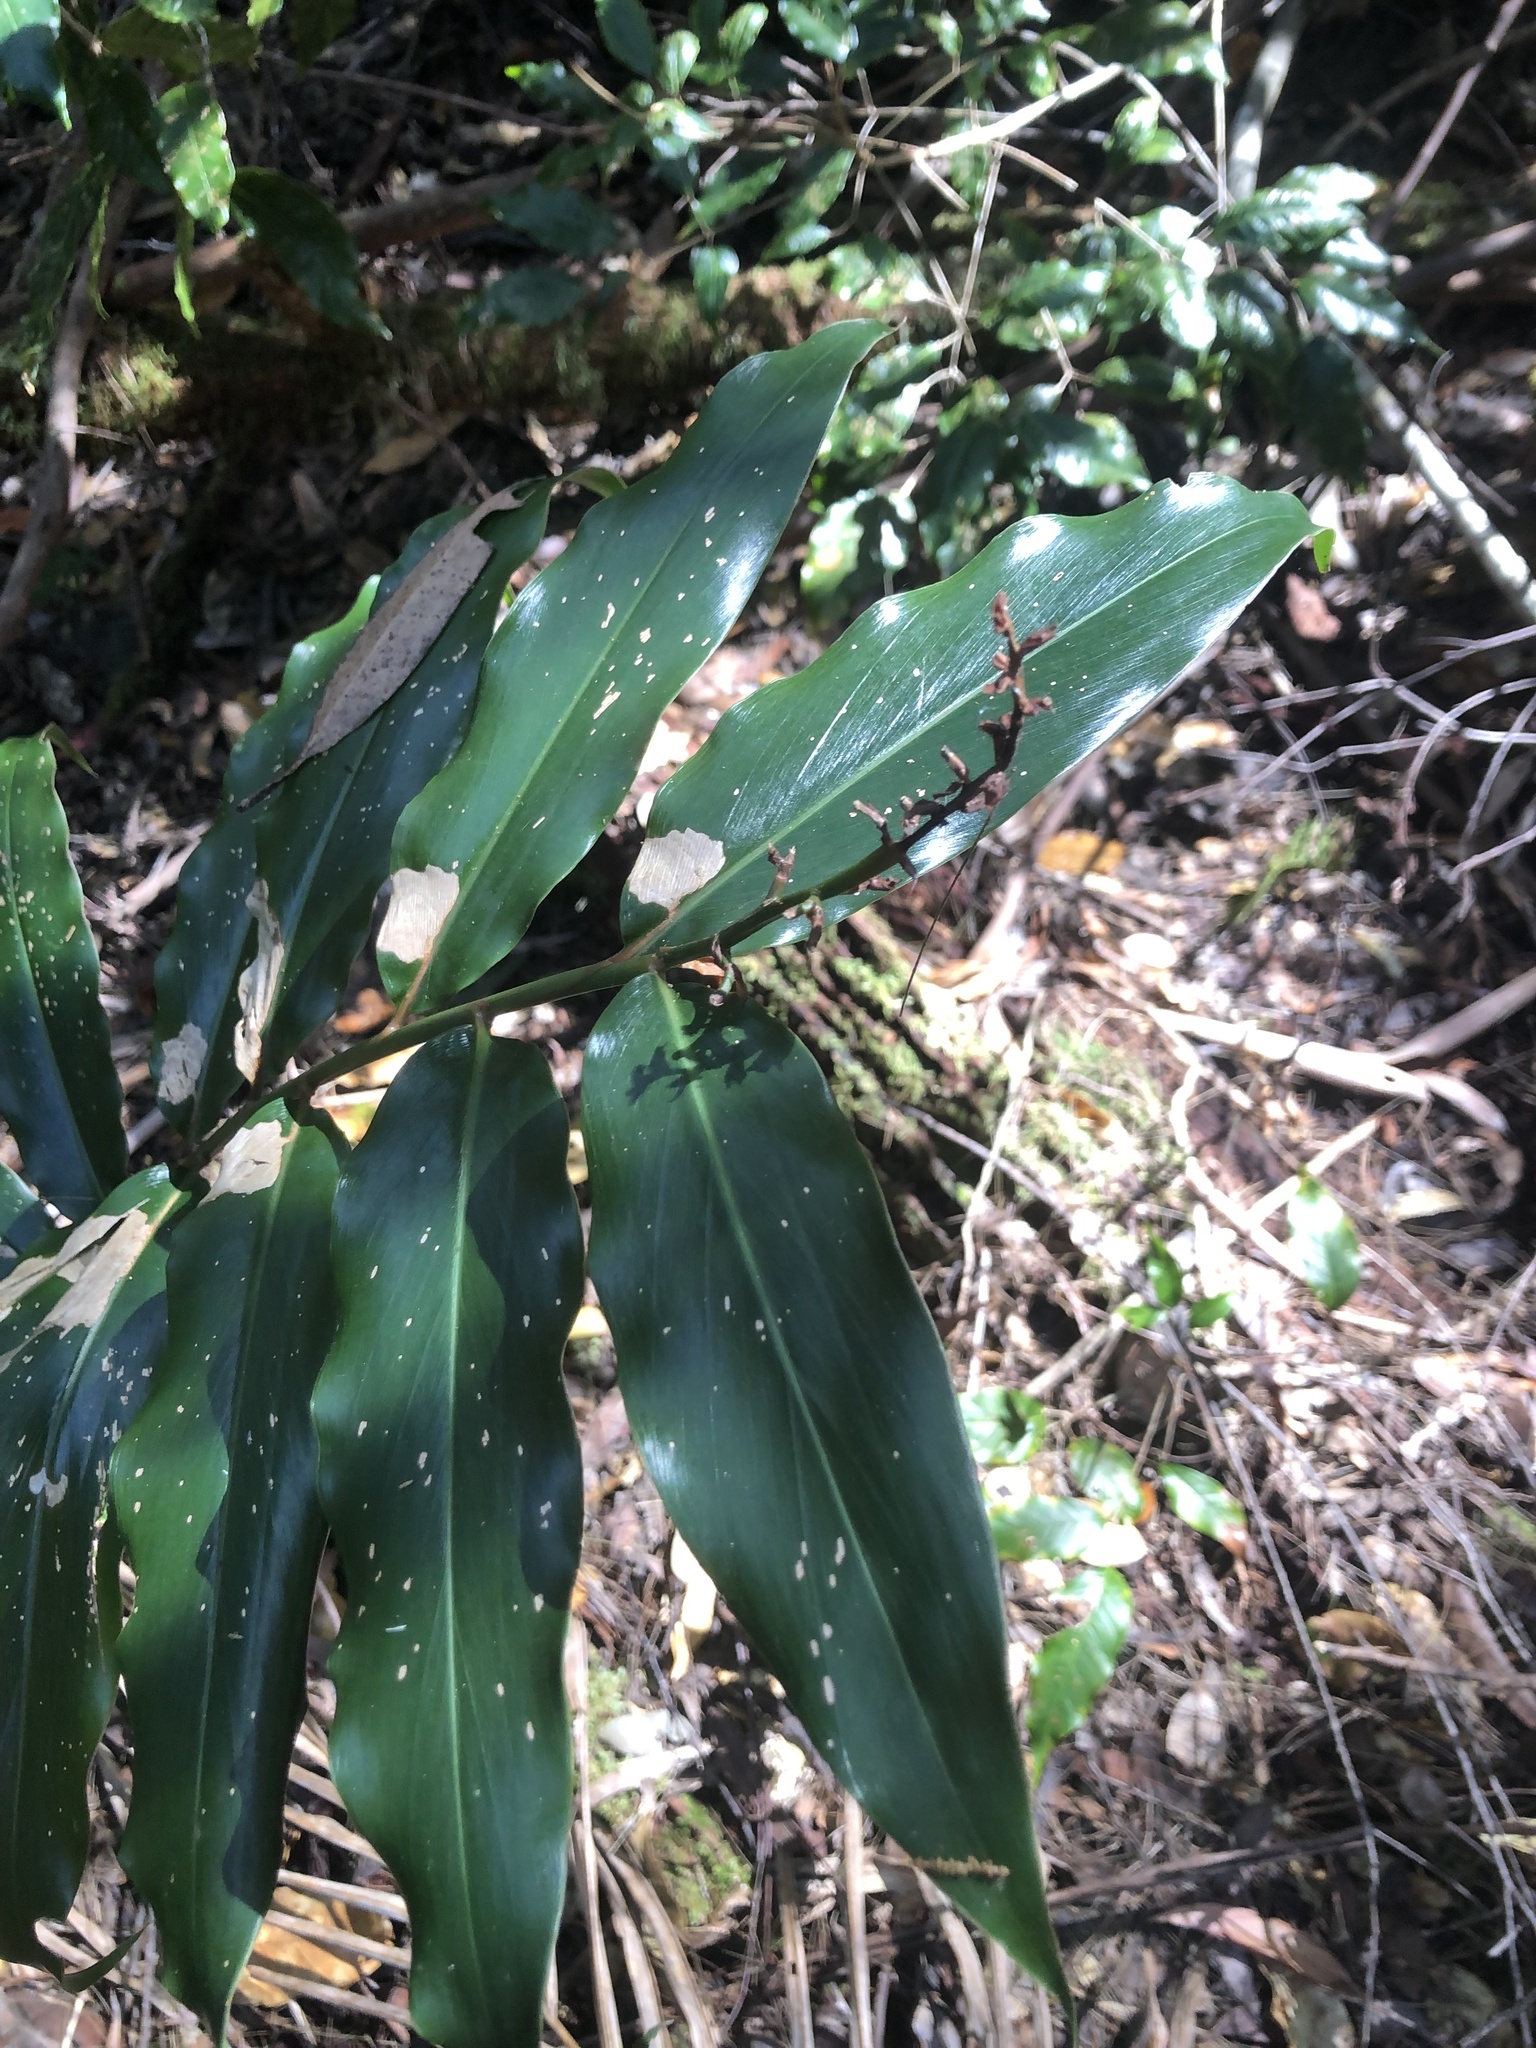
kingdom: Plantae
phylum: Tracheophyta
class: Liliopsida
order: Zingiberales
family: Zingiberaceae
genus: Alpinia
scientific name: Alpinia arundelliana
